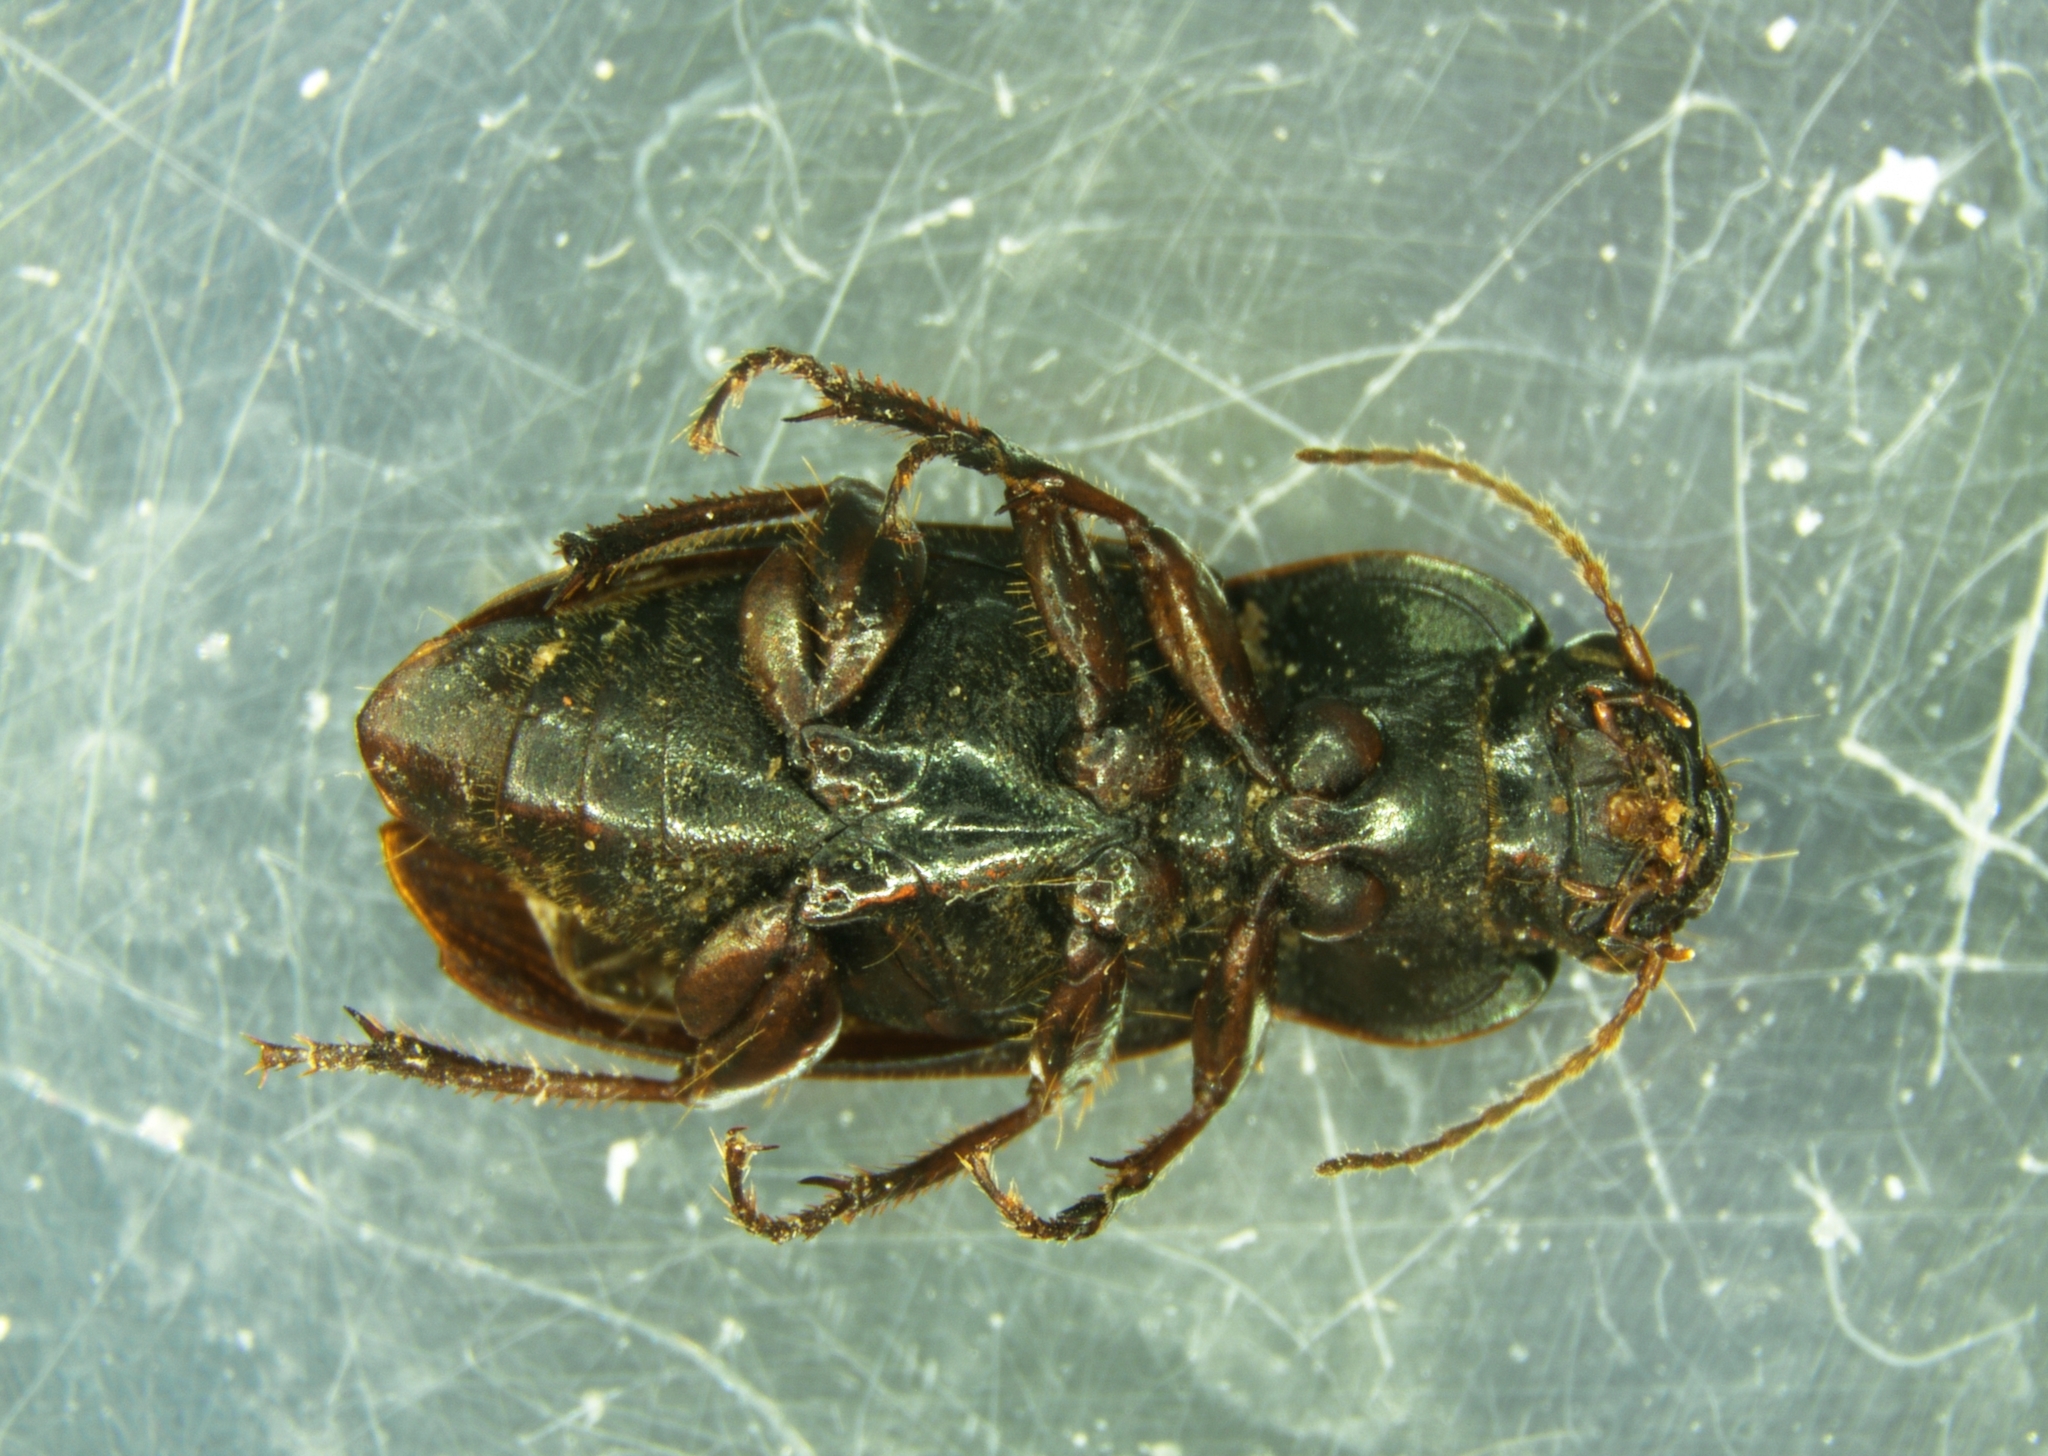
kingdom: Animalia
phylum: Arthropoda
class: Insecta
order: Coleoptera
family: Carabidae
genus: Harpalus
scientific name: Harpalus affinis
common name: Polychrome harp ground beetle
